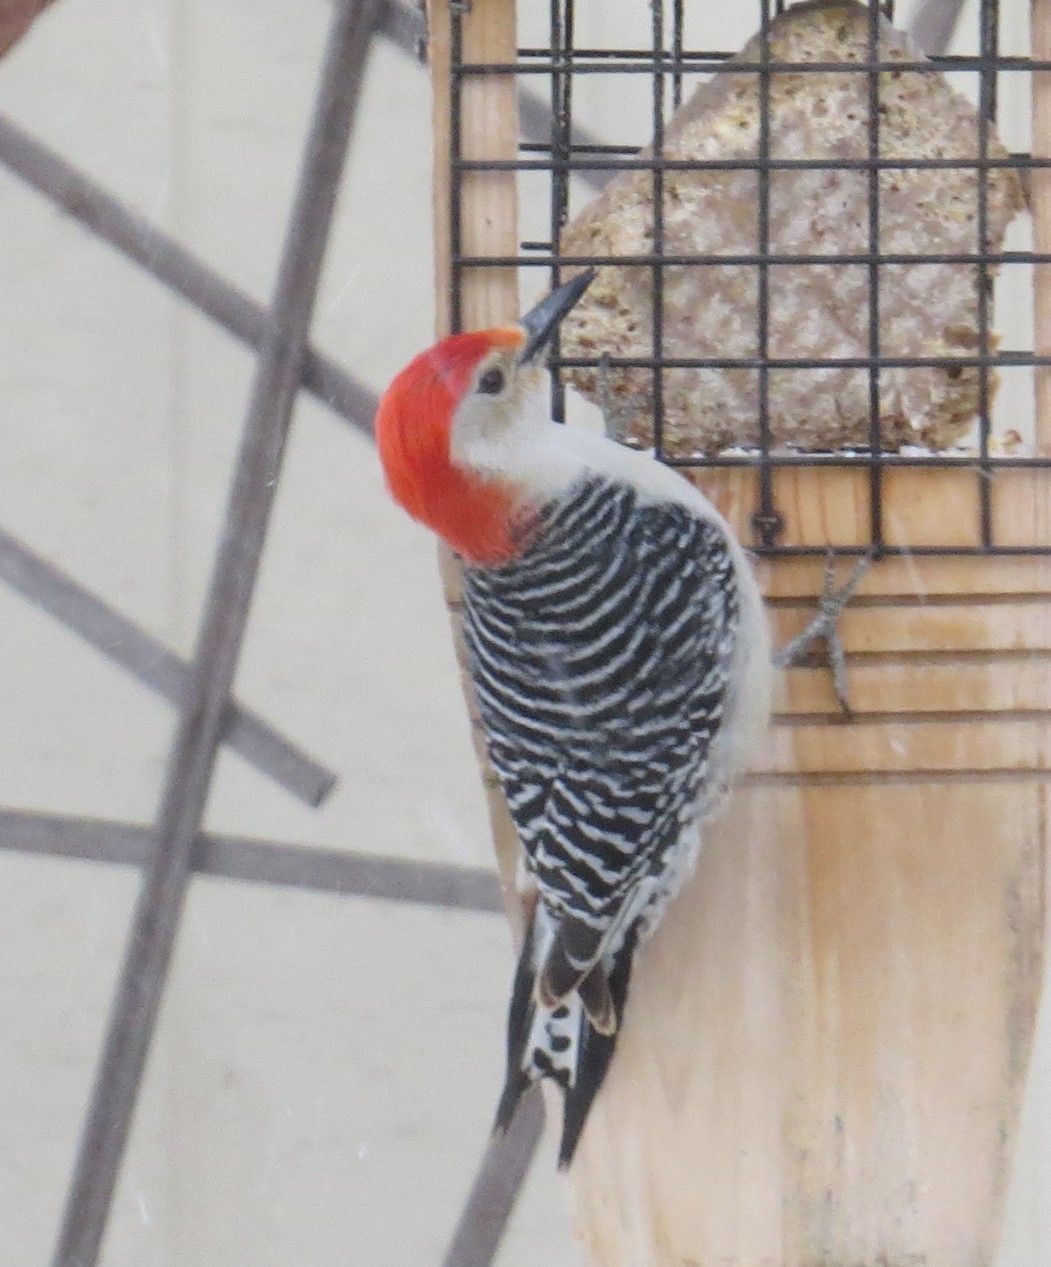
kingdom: Animalia
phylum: Chordata
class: Aves
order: Piciformes
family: Picidae
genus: Melanerpes
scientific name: Melanerpes carolinus
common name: Red-bellied woodpecker
